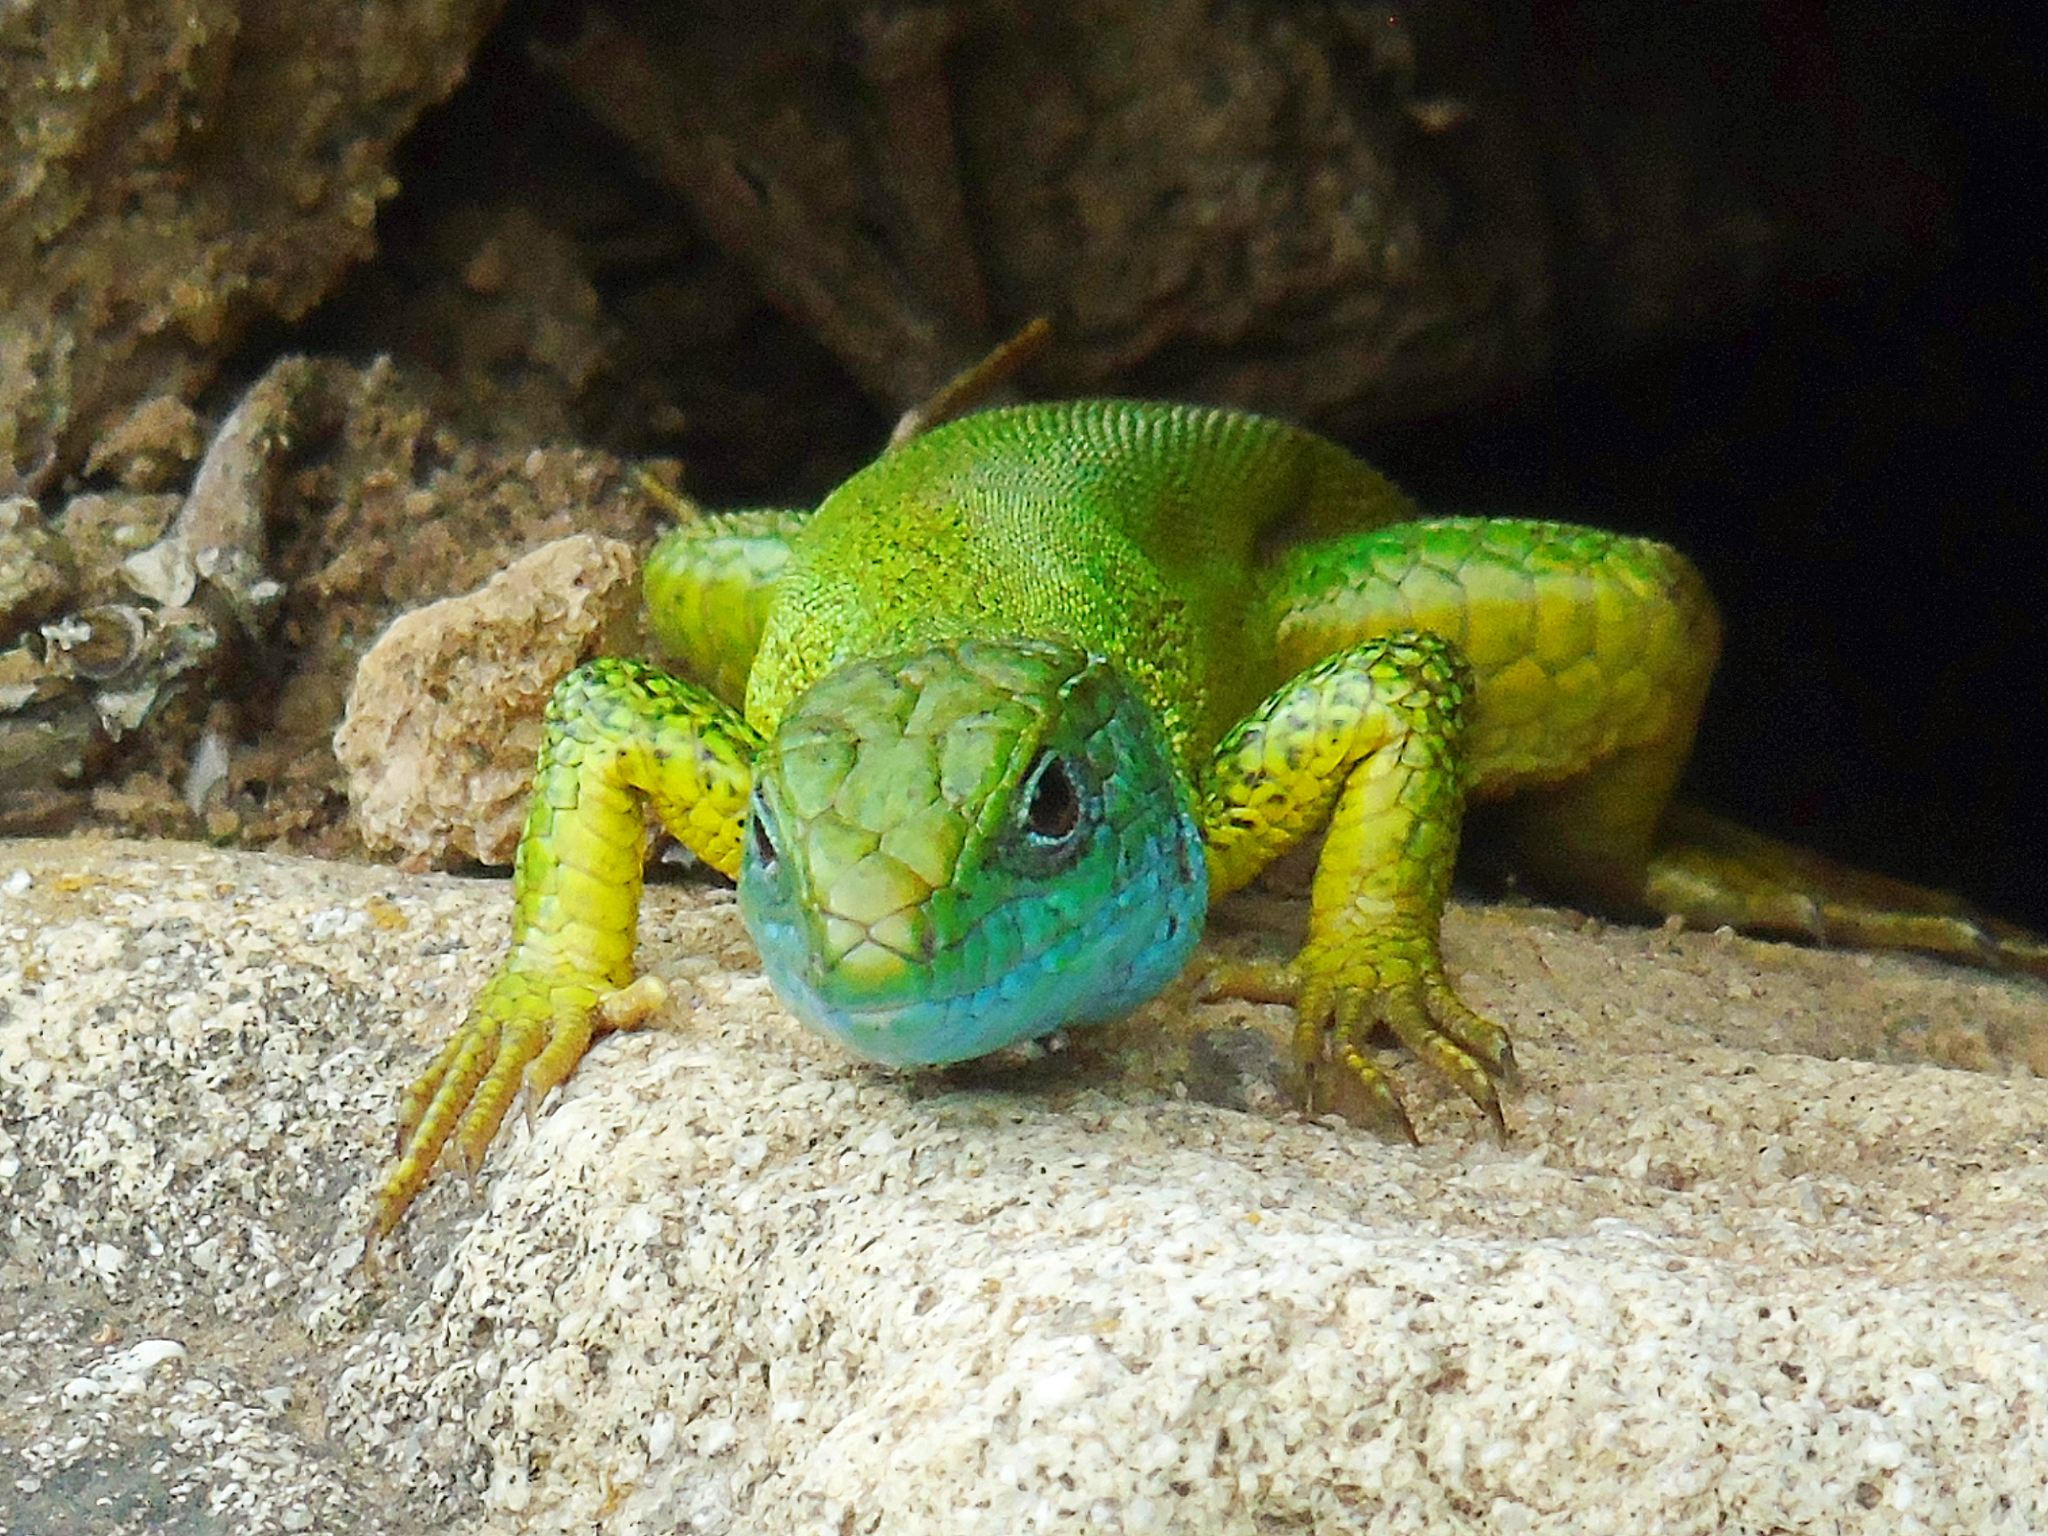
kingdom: Animalia
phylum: Chordata
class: Squamata
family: Lacertidae
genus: Lacerta
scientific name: Lacerta viridis
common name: European green lizard
